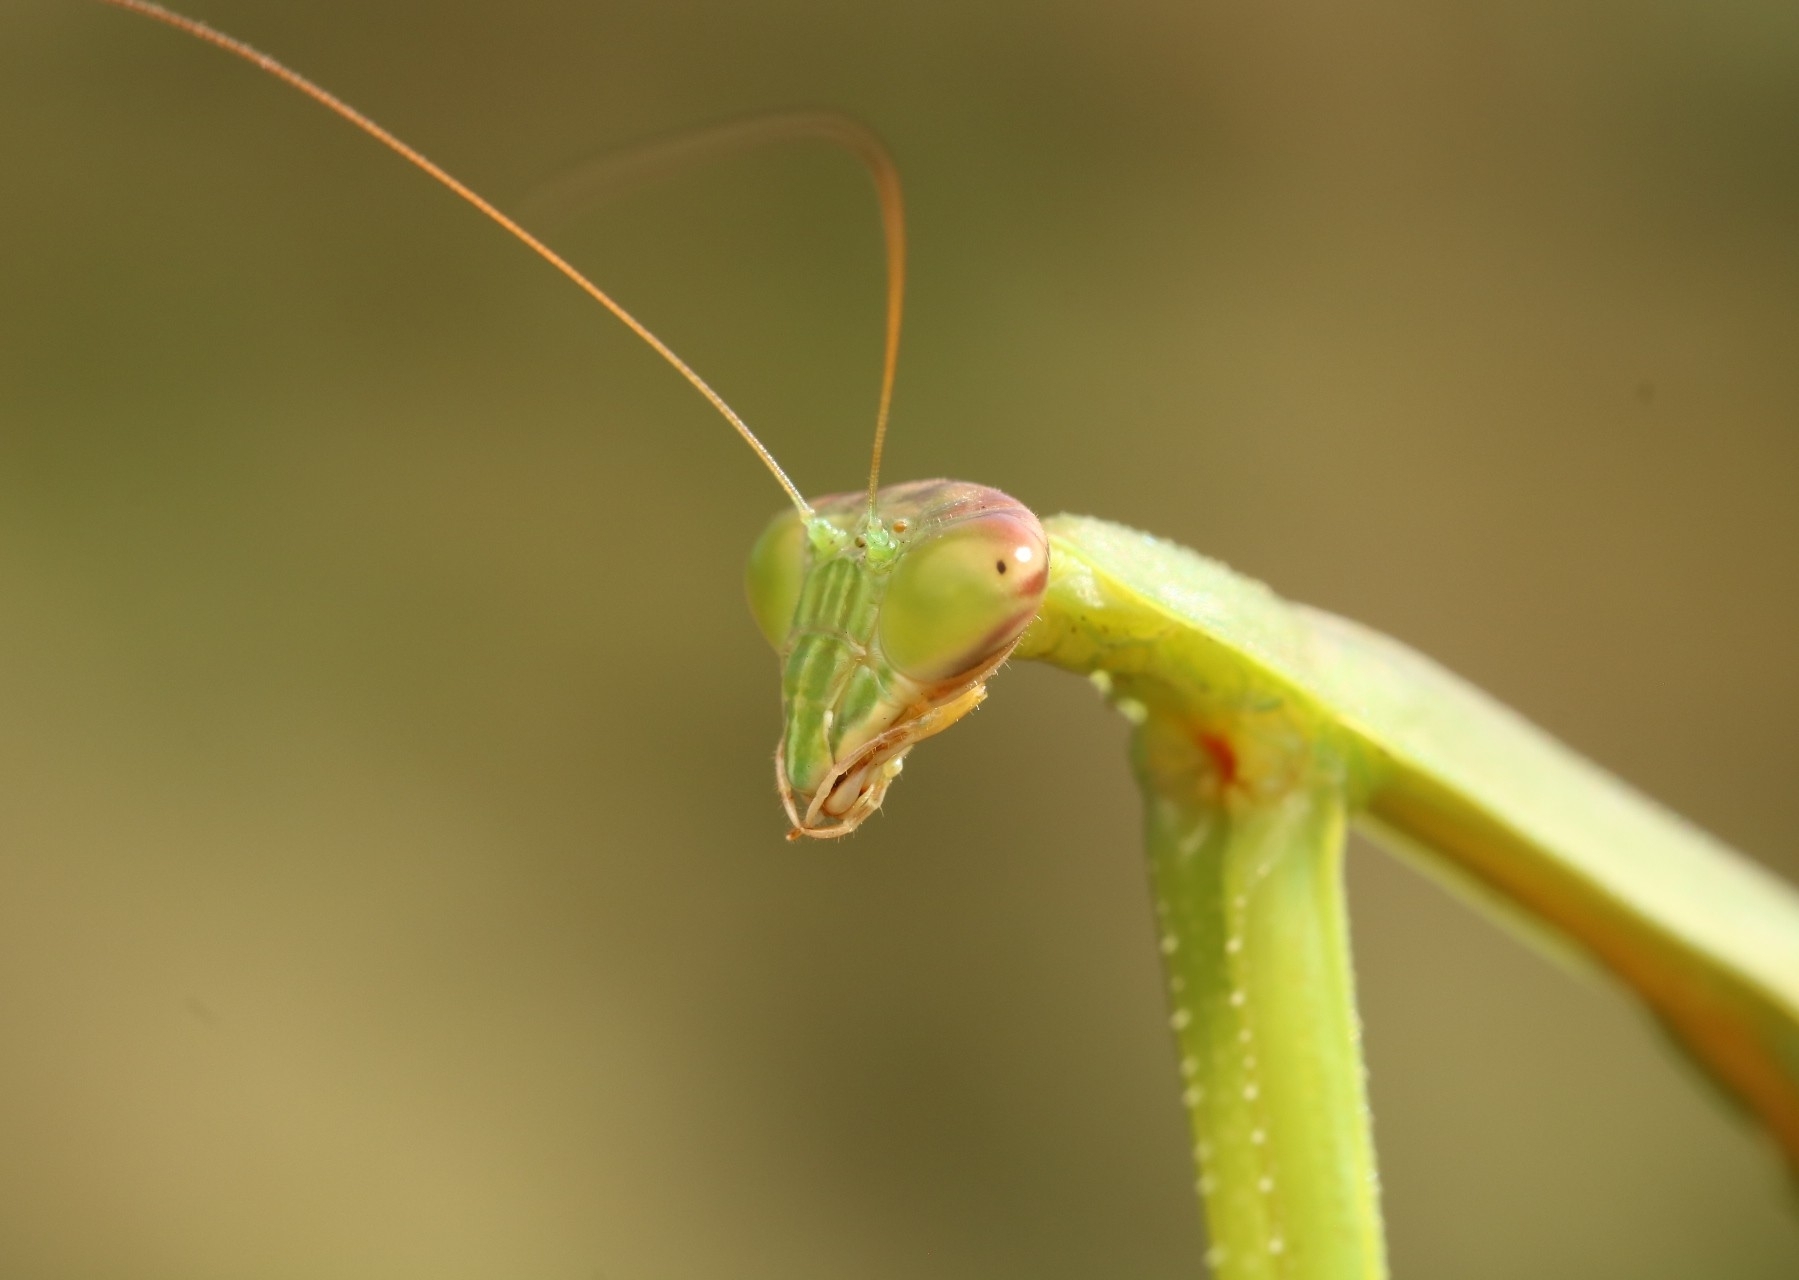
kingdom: Animalia
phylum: Arthropoda
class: Insecta
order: Mantodea
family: Mantidae
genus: Tenodera
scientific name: Tenodera angustipennis
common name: Asian mantis
